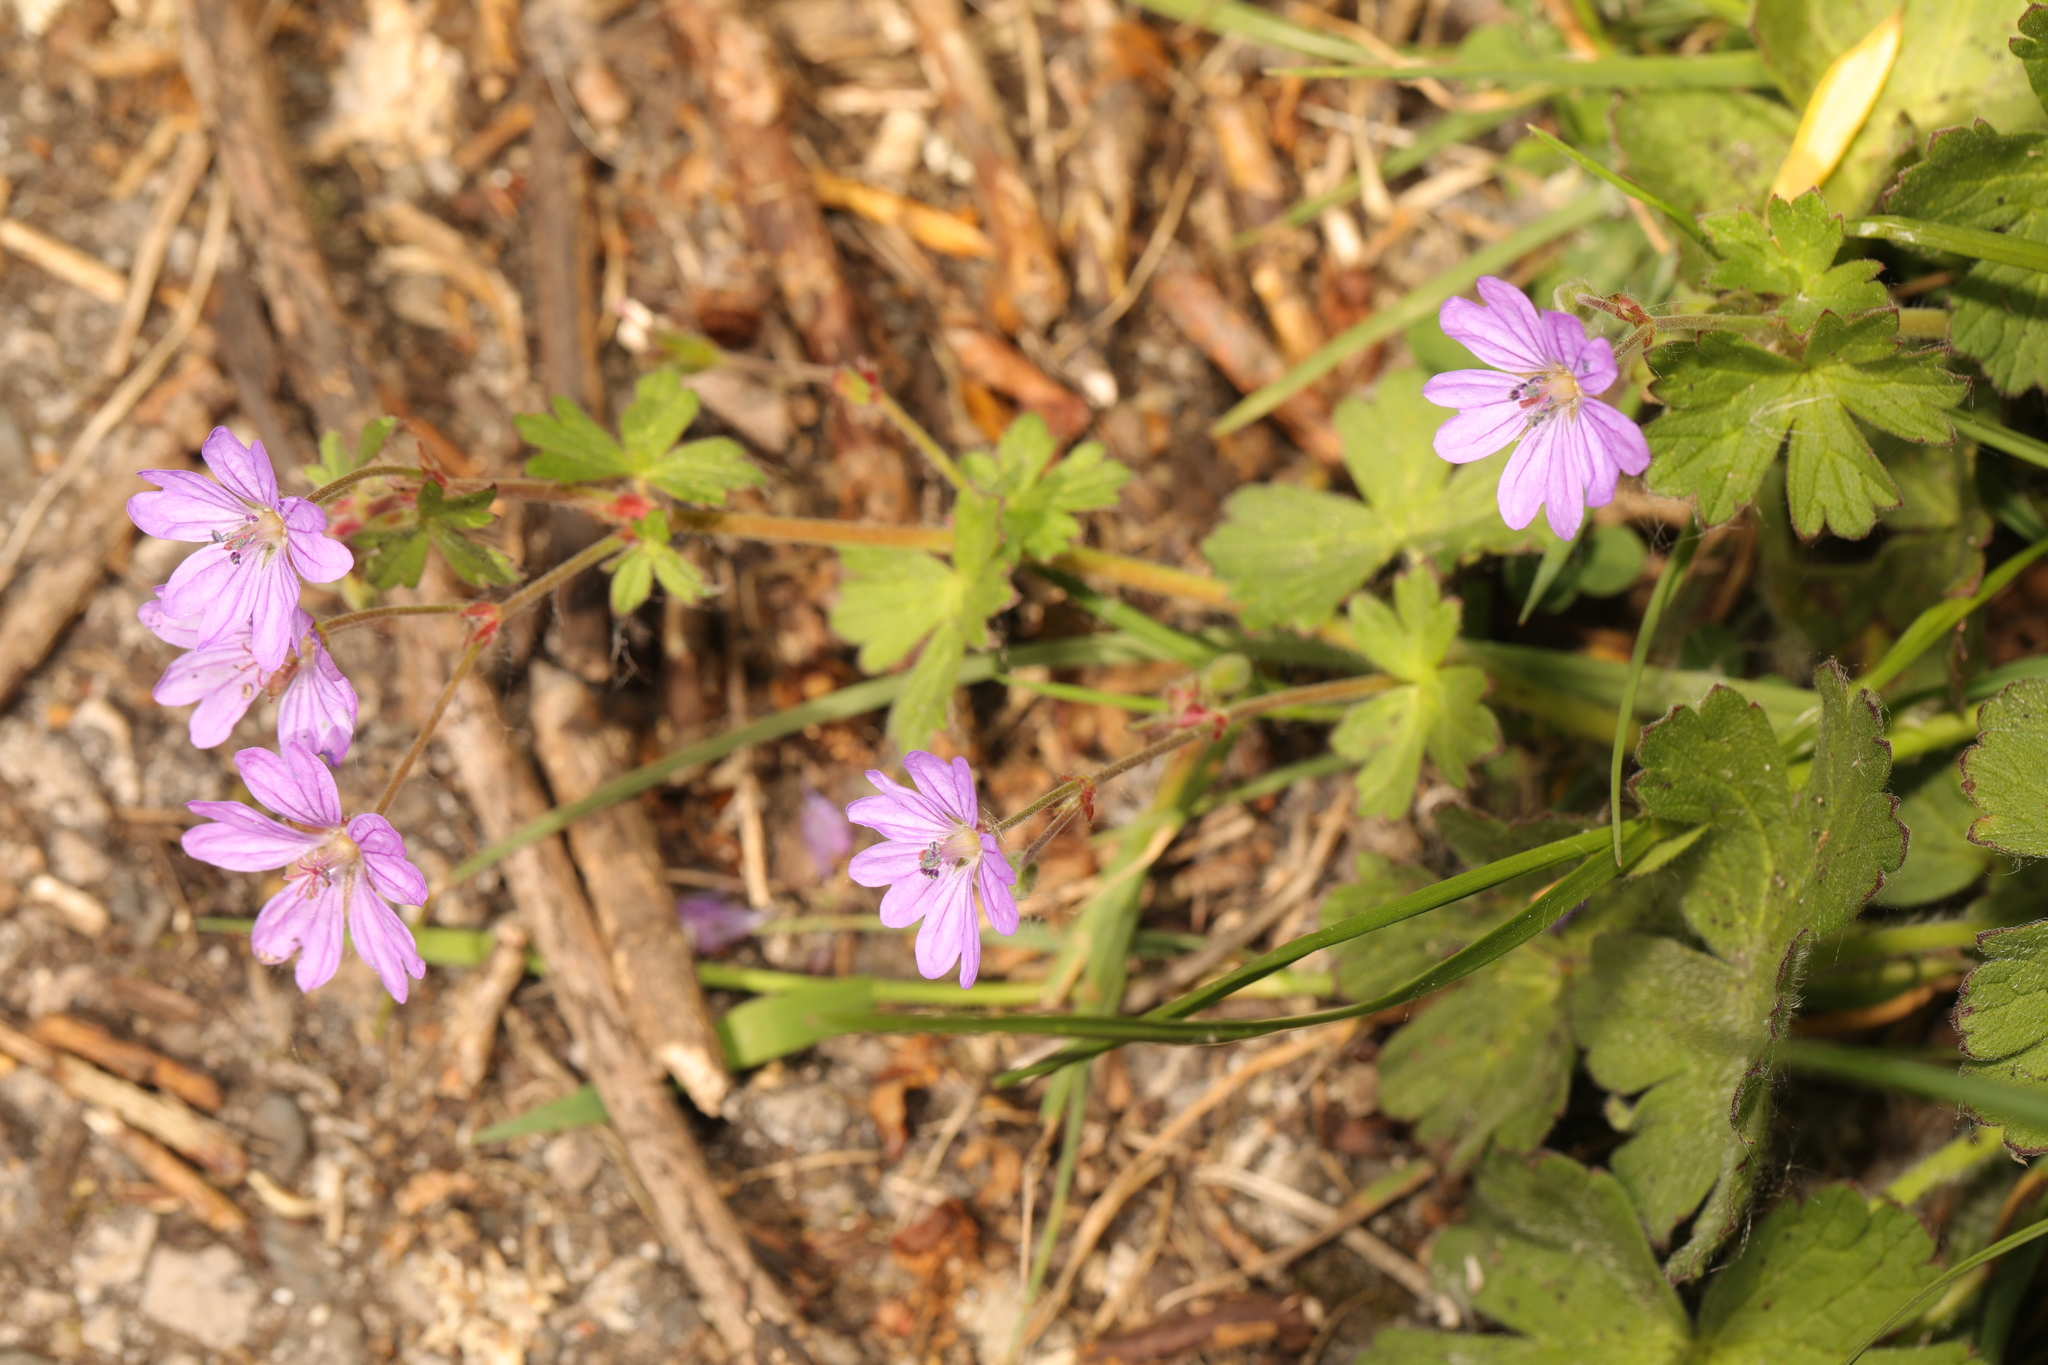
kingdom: Plantae
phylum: Tracheophyta
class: Magnoliopsida
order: Geraniales
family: Geraniaceae
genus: Geranium
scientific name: Geranium pyrenaicum
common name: Hedgerow crane's-bill
